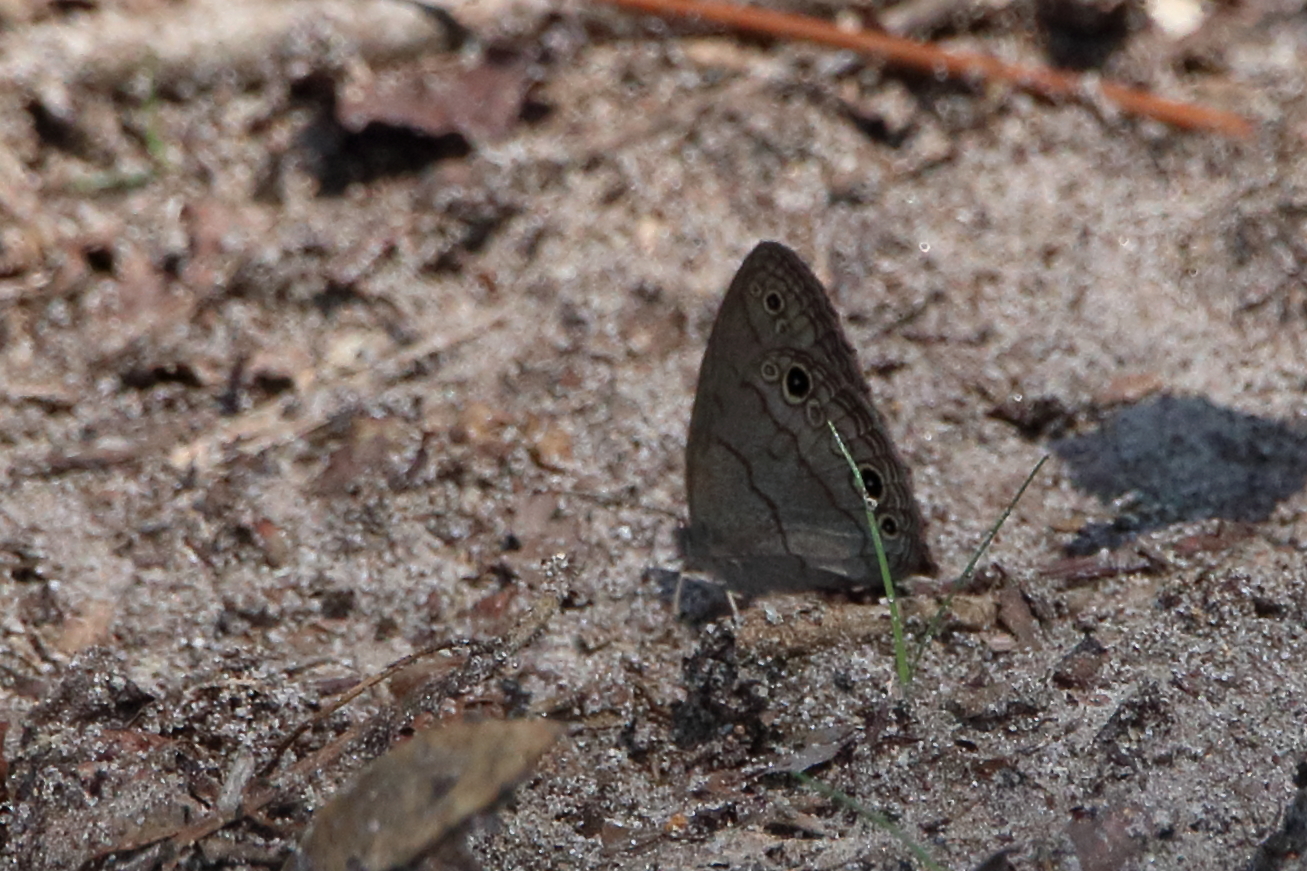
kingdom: Animalia
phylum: Arthropoda
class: Insecta
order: Lepidoptera
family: Nymphalidae
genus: Hermeuptychia
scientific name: Hermeuptychia hermes
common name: Hermes satyr
